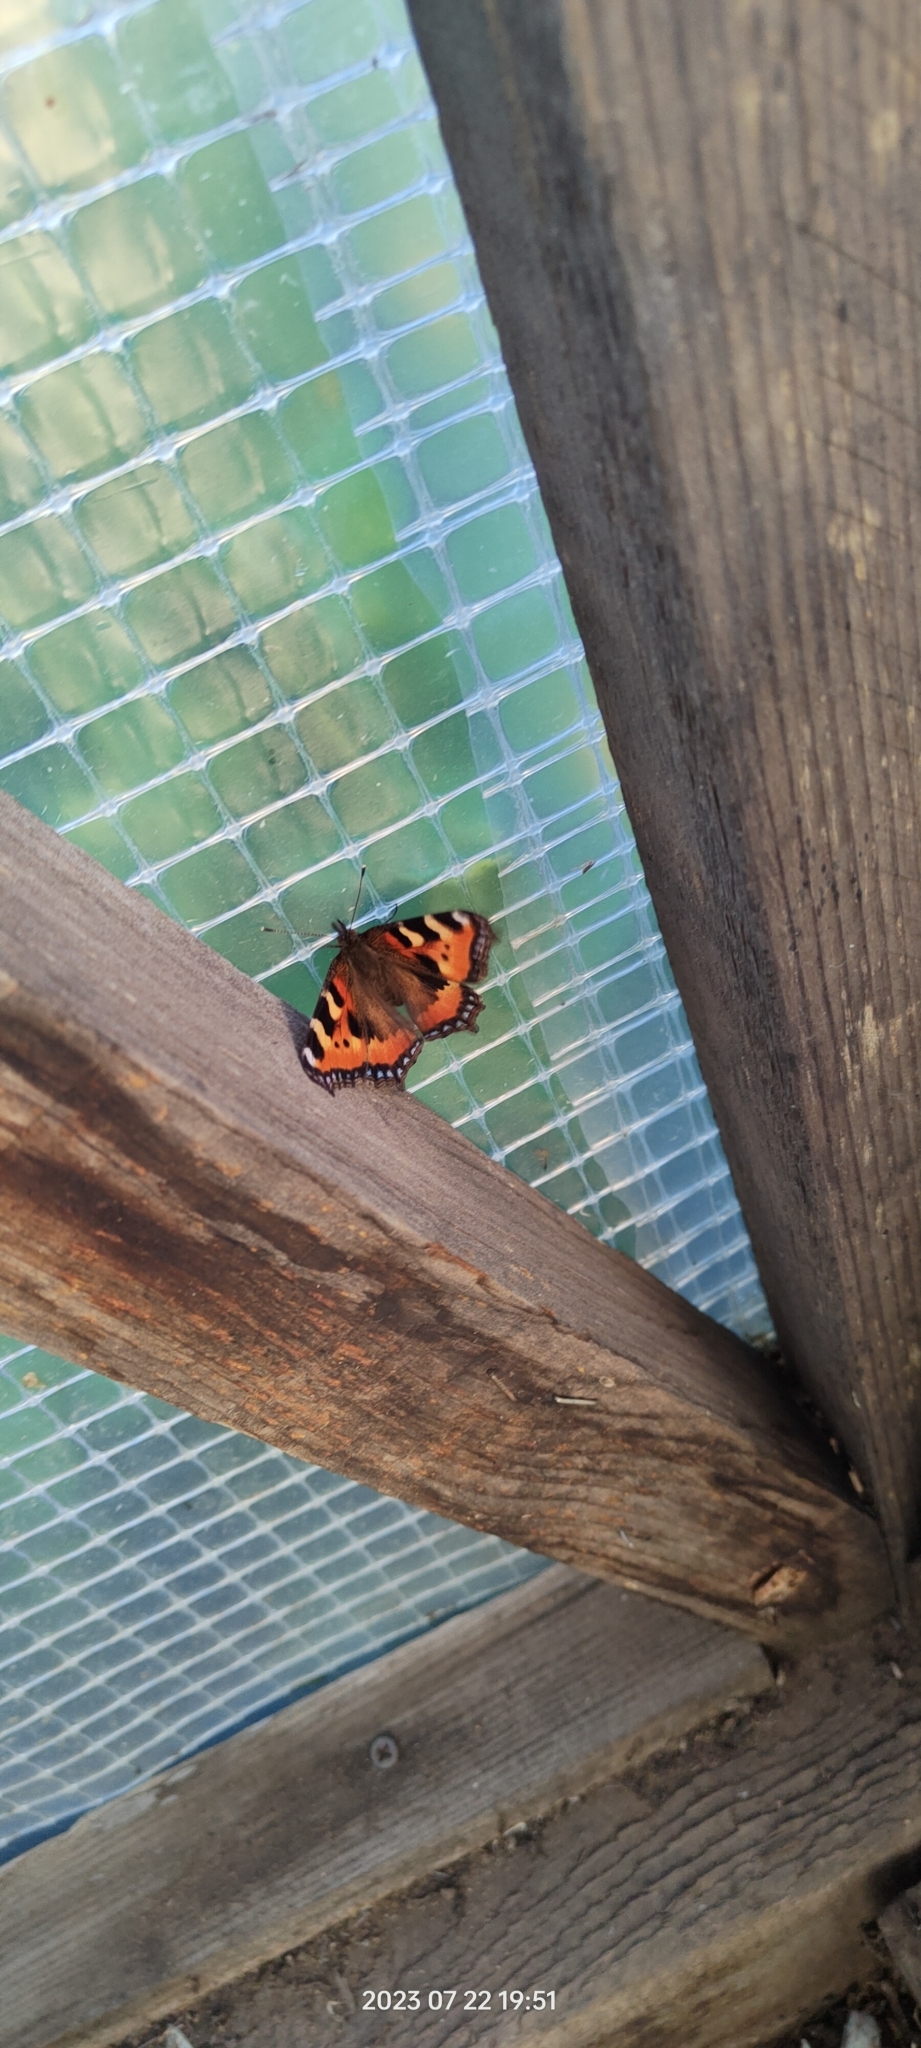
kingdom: Animalia
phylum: Arthropoda
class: Insecta
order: Lepidoptera
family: Nymphalidae
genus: Aglais
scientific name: Aglais urticae
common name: Small tortoiseshell
